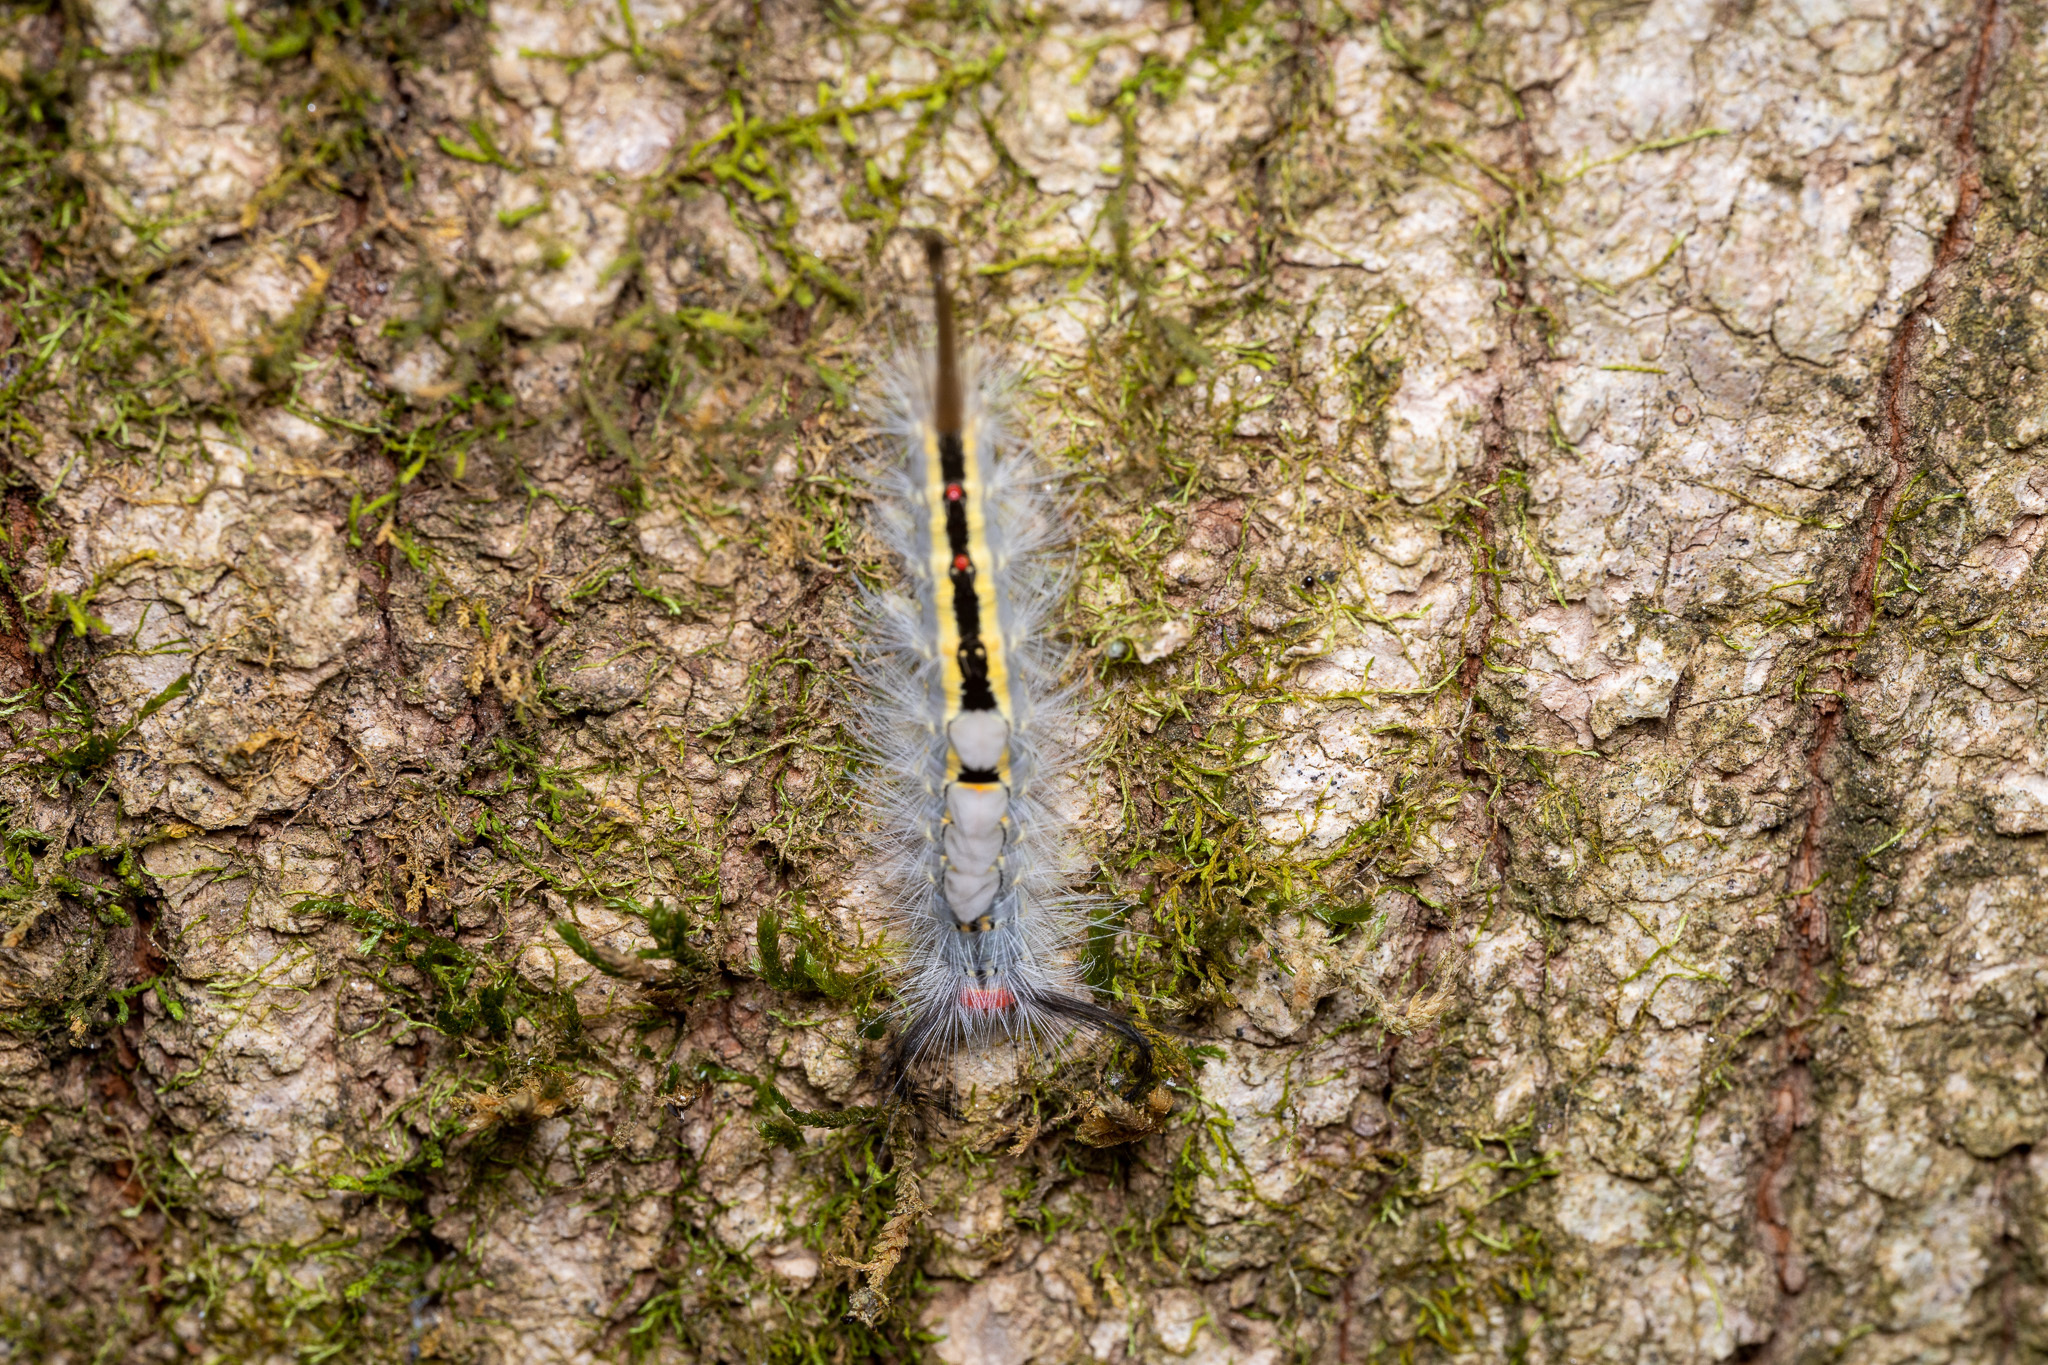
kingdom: Animalia
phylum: Arthropoda
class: Insecta
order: Lepidoptera
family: Erebidae
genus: Orgyia
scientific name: Orgyia leucostigma
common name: White-marked tussock moth
